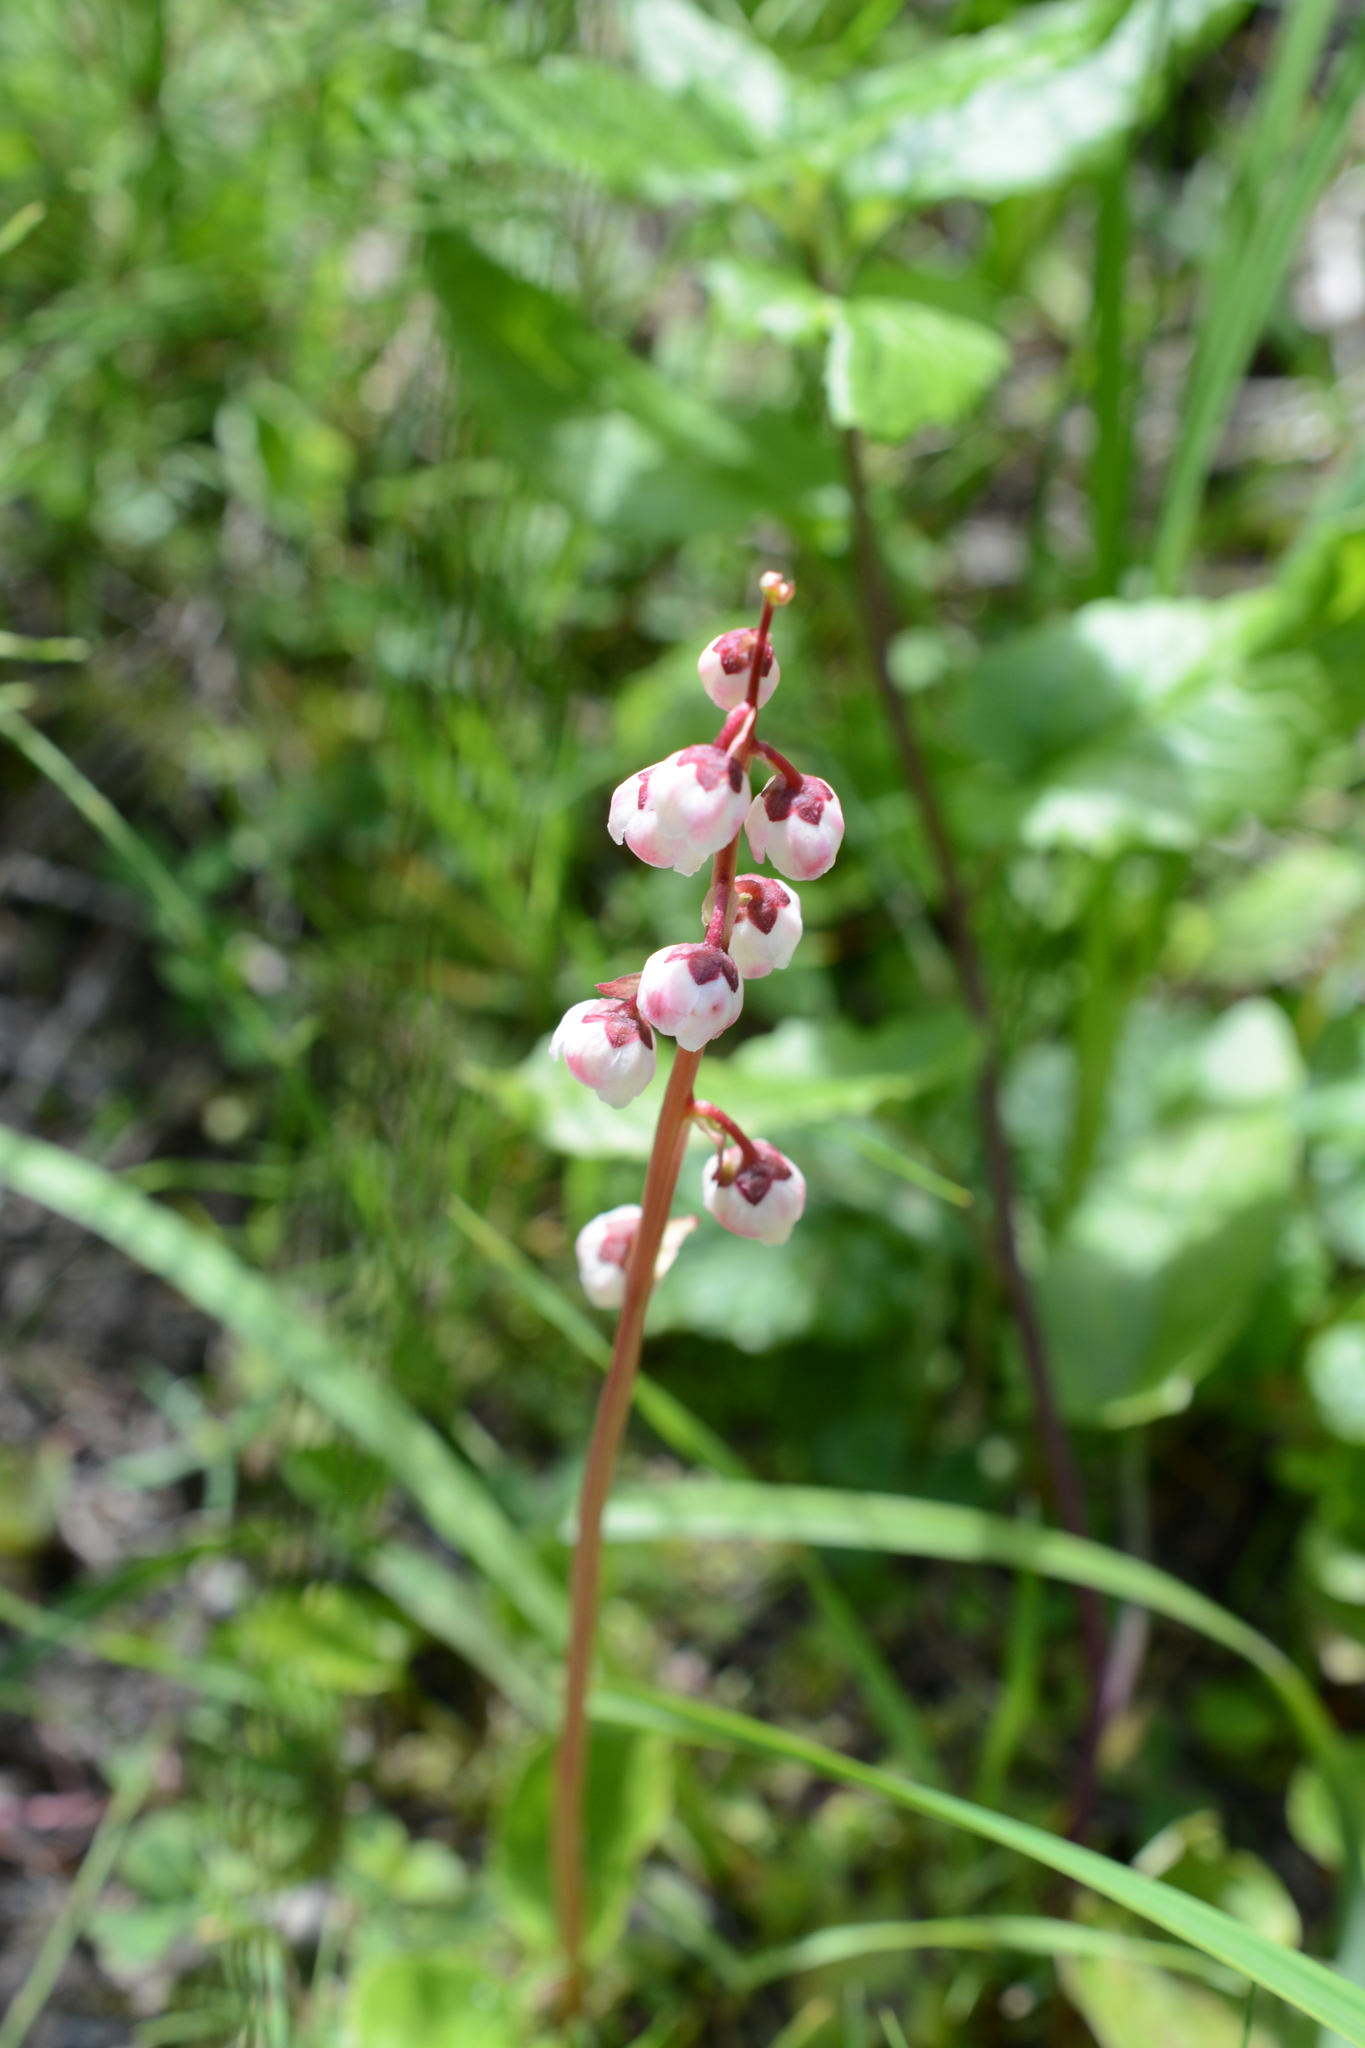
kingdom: Plantae
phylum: Tracheophyta
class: Magnoliopsida
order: Ericales
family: Ericaceae
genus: Pyrola
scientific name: Pyrola minor
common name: Common wintergreen
